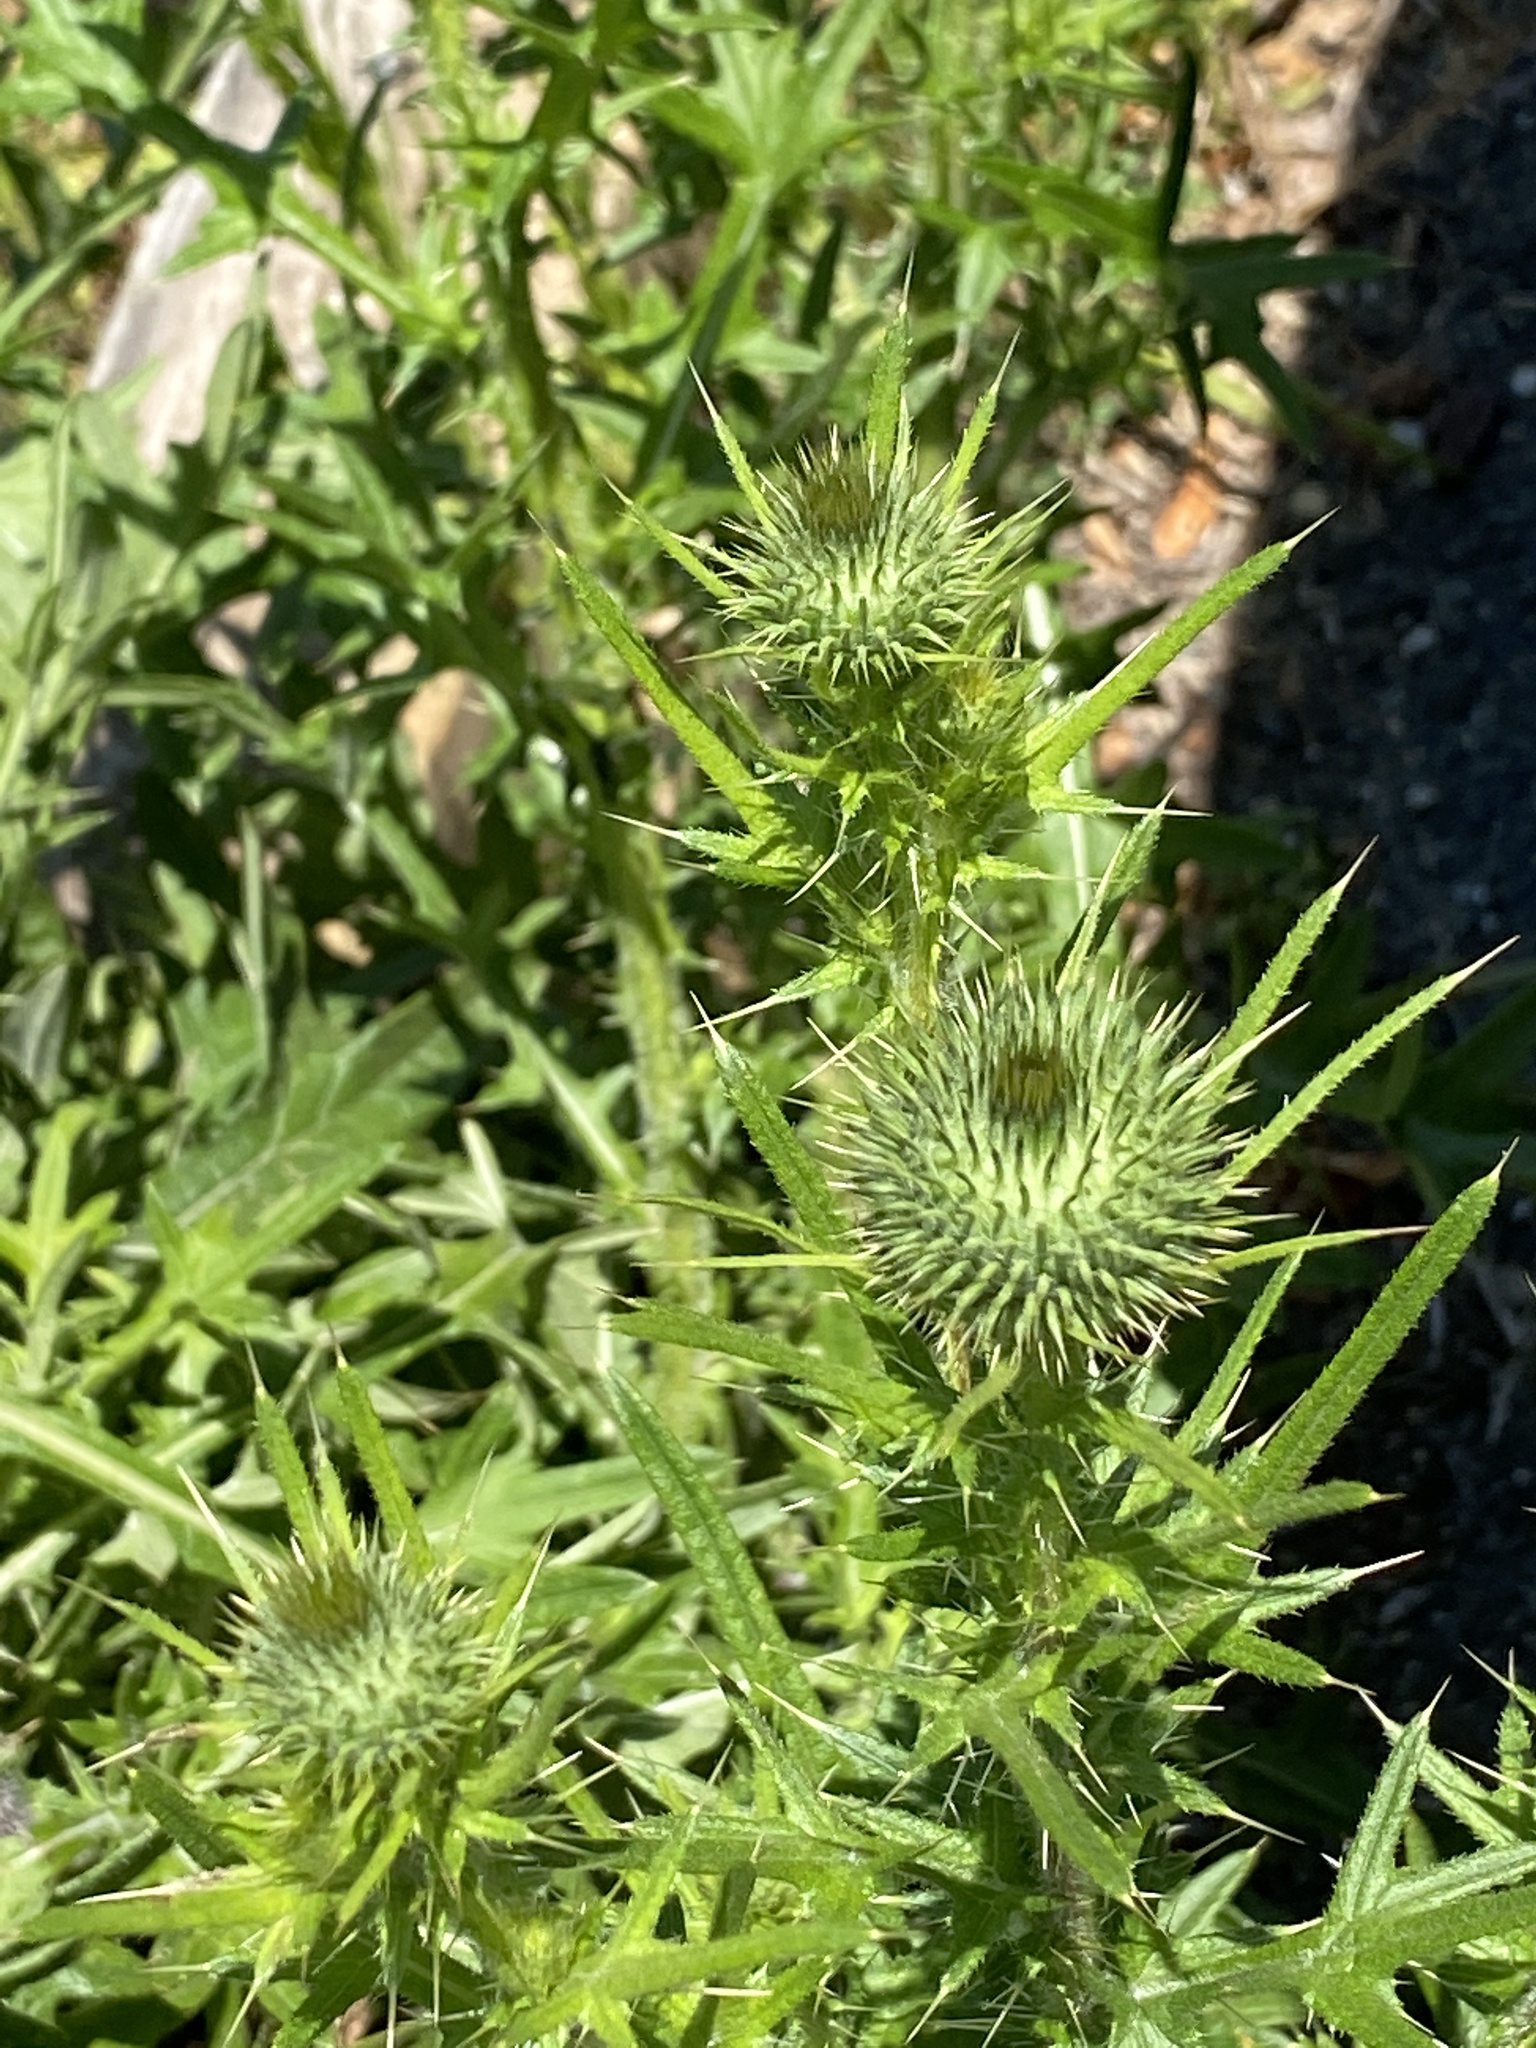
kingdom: Plantae
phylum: Tracheophyta
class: Magnoliopsida
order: Asterales
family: Asteraceae
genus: Cirsium
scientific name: Cirsium vulgare
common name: Bull thistle
